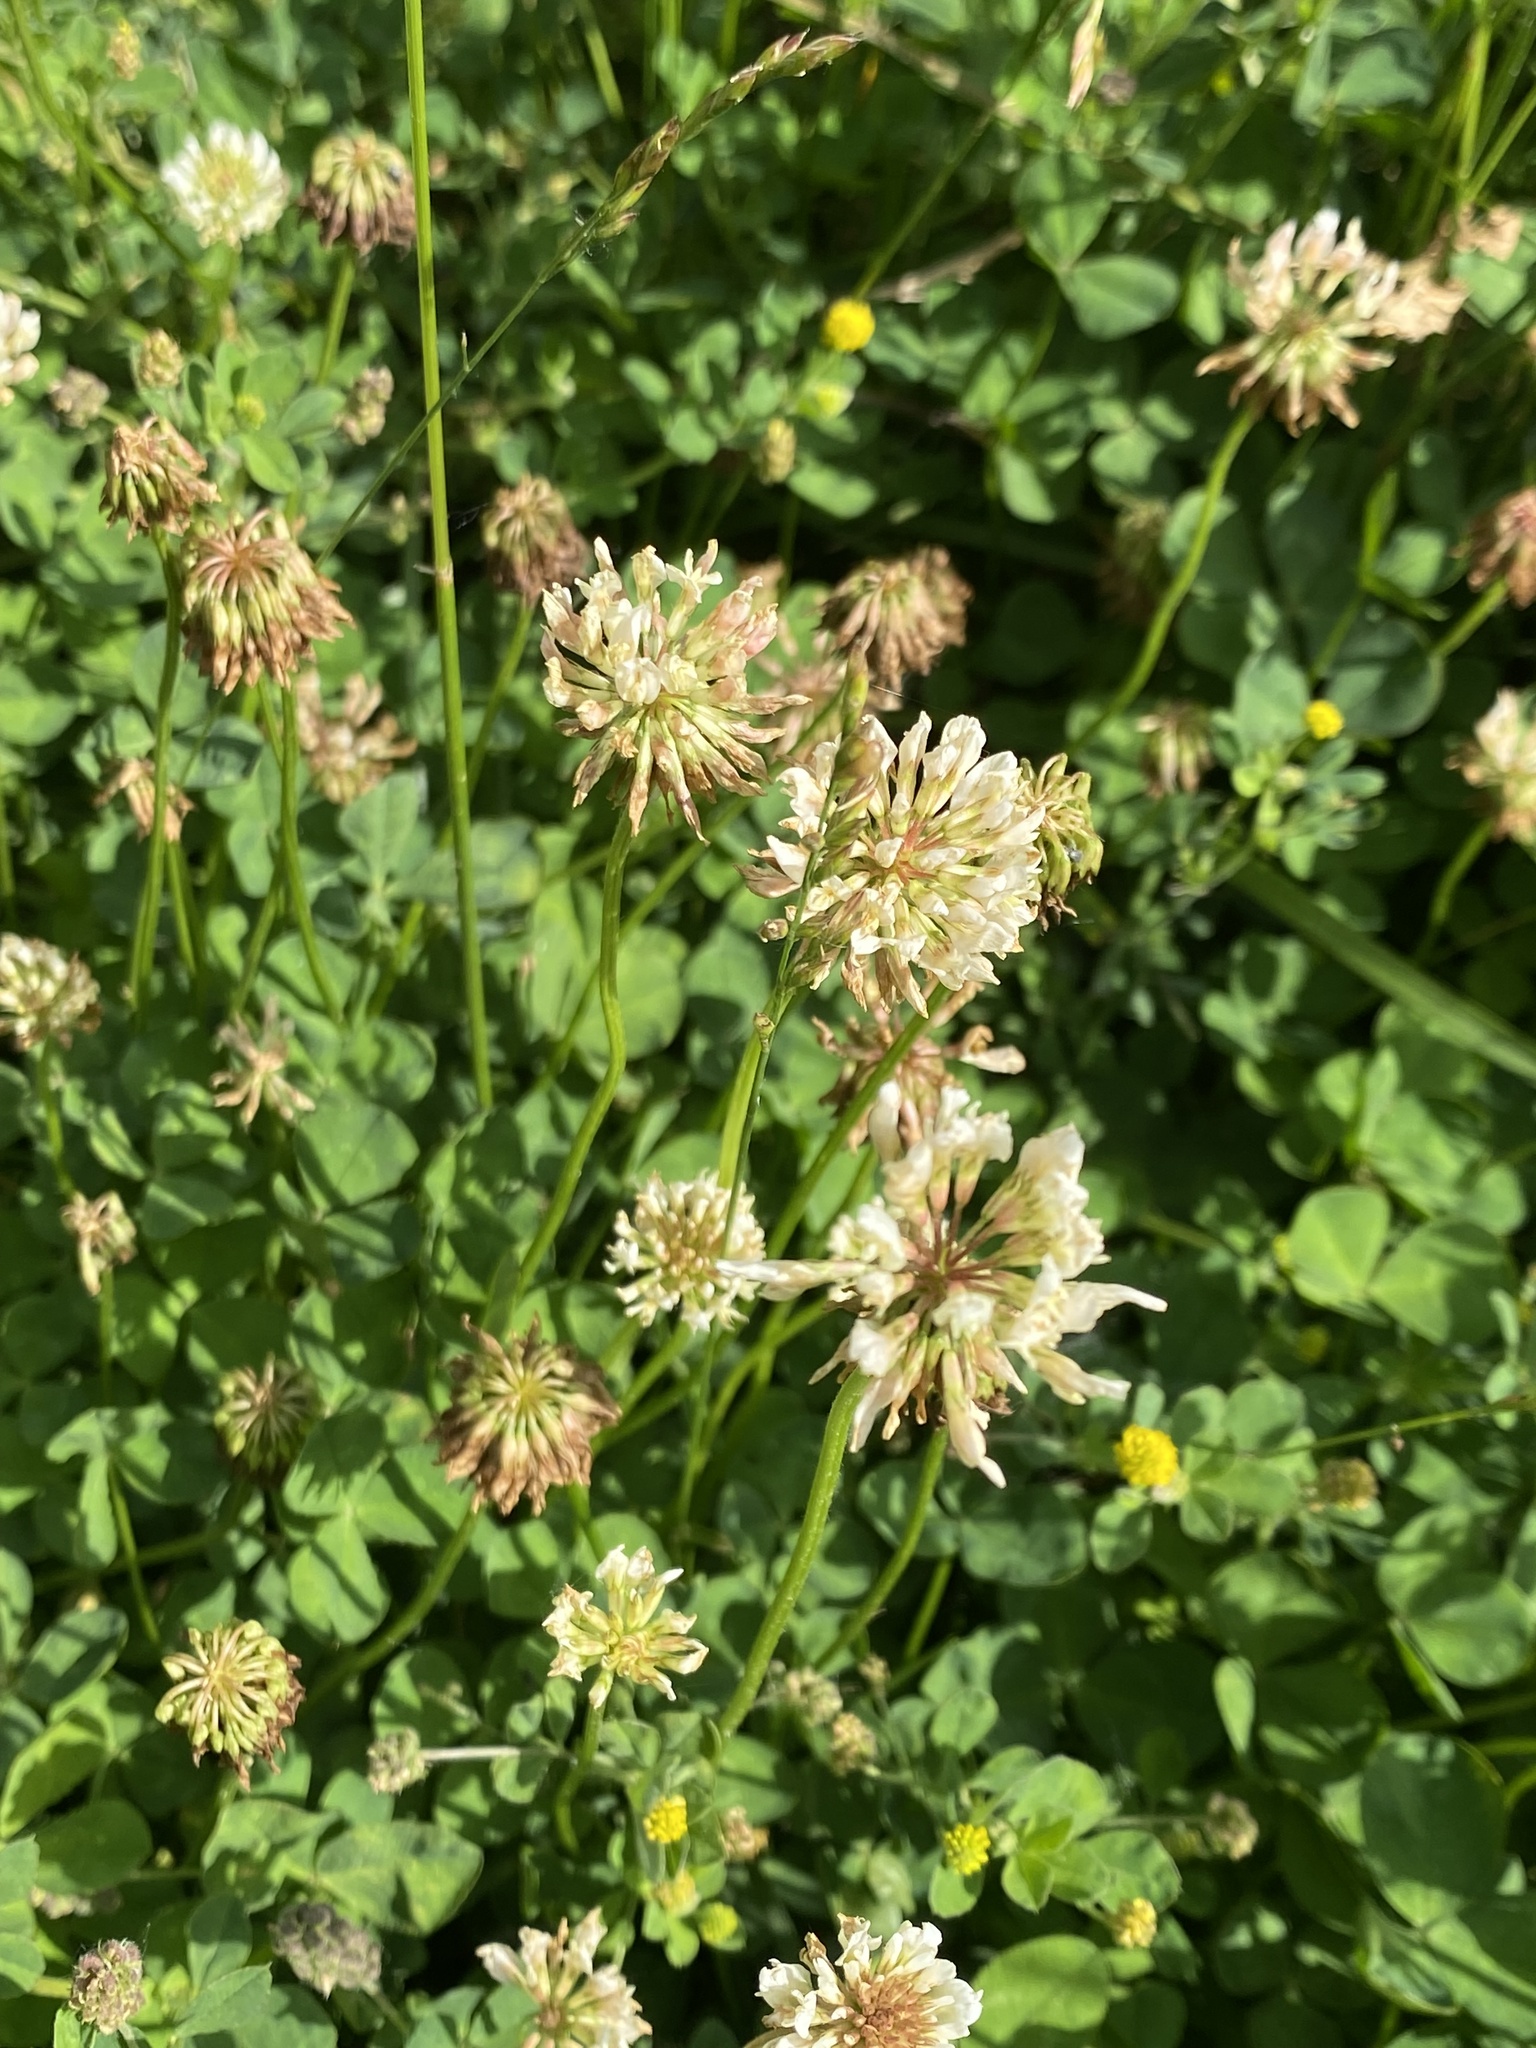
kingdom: Plantae
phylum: Tracheophyta
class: Magnoliopsida
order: Fabales
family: Fabaceae
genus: Trifolium
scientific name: Trifolium repens
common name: White clover
